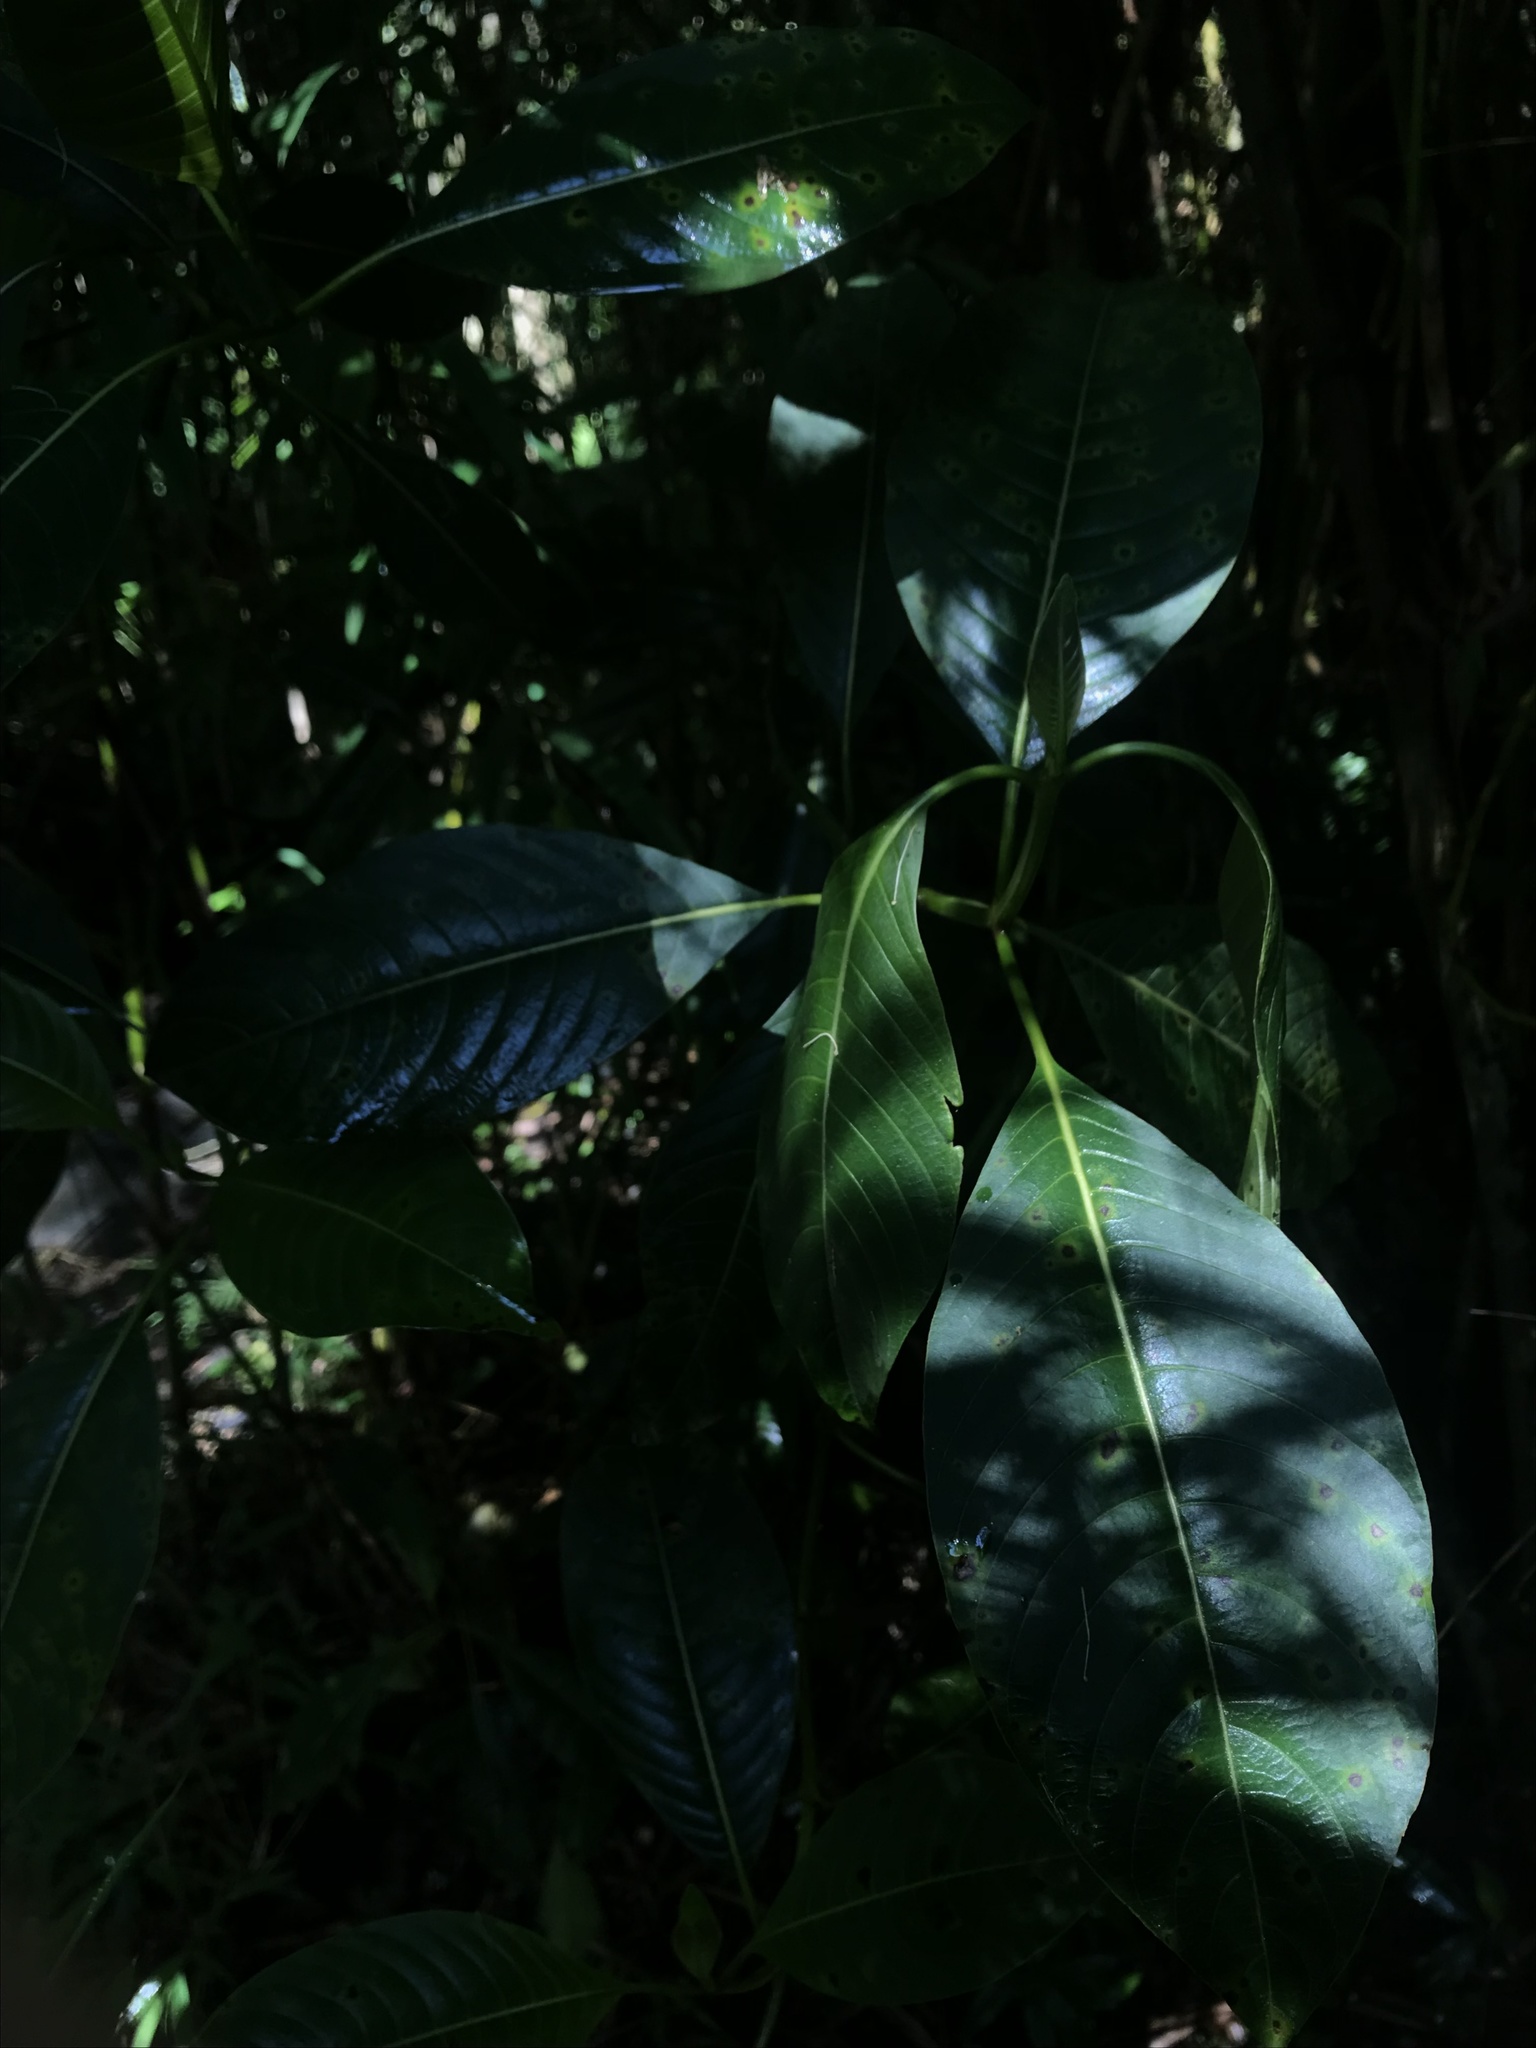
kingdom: Plantae
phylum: Tracheophyta
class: Magnoliopsida
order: Gentianales
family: Rubiaceae
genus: Palicourea
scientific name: Palicourea lineariflora
